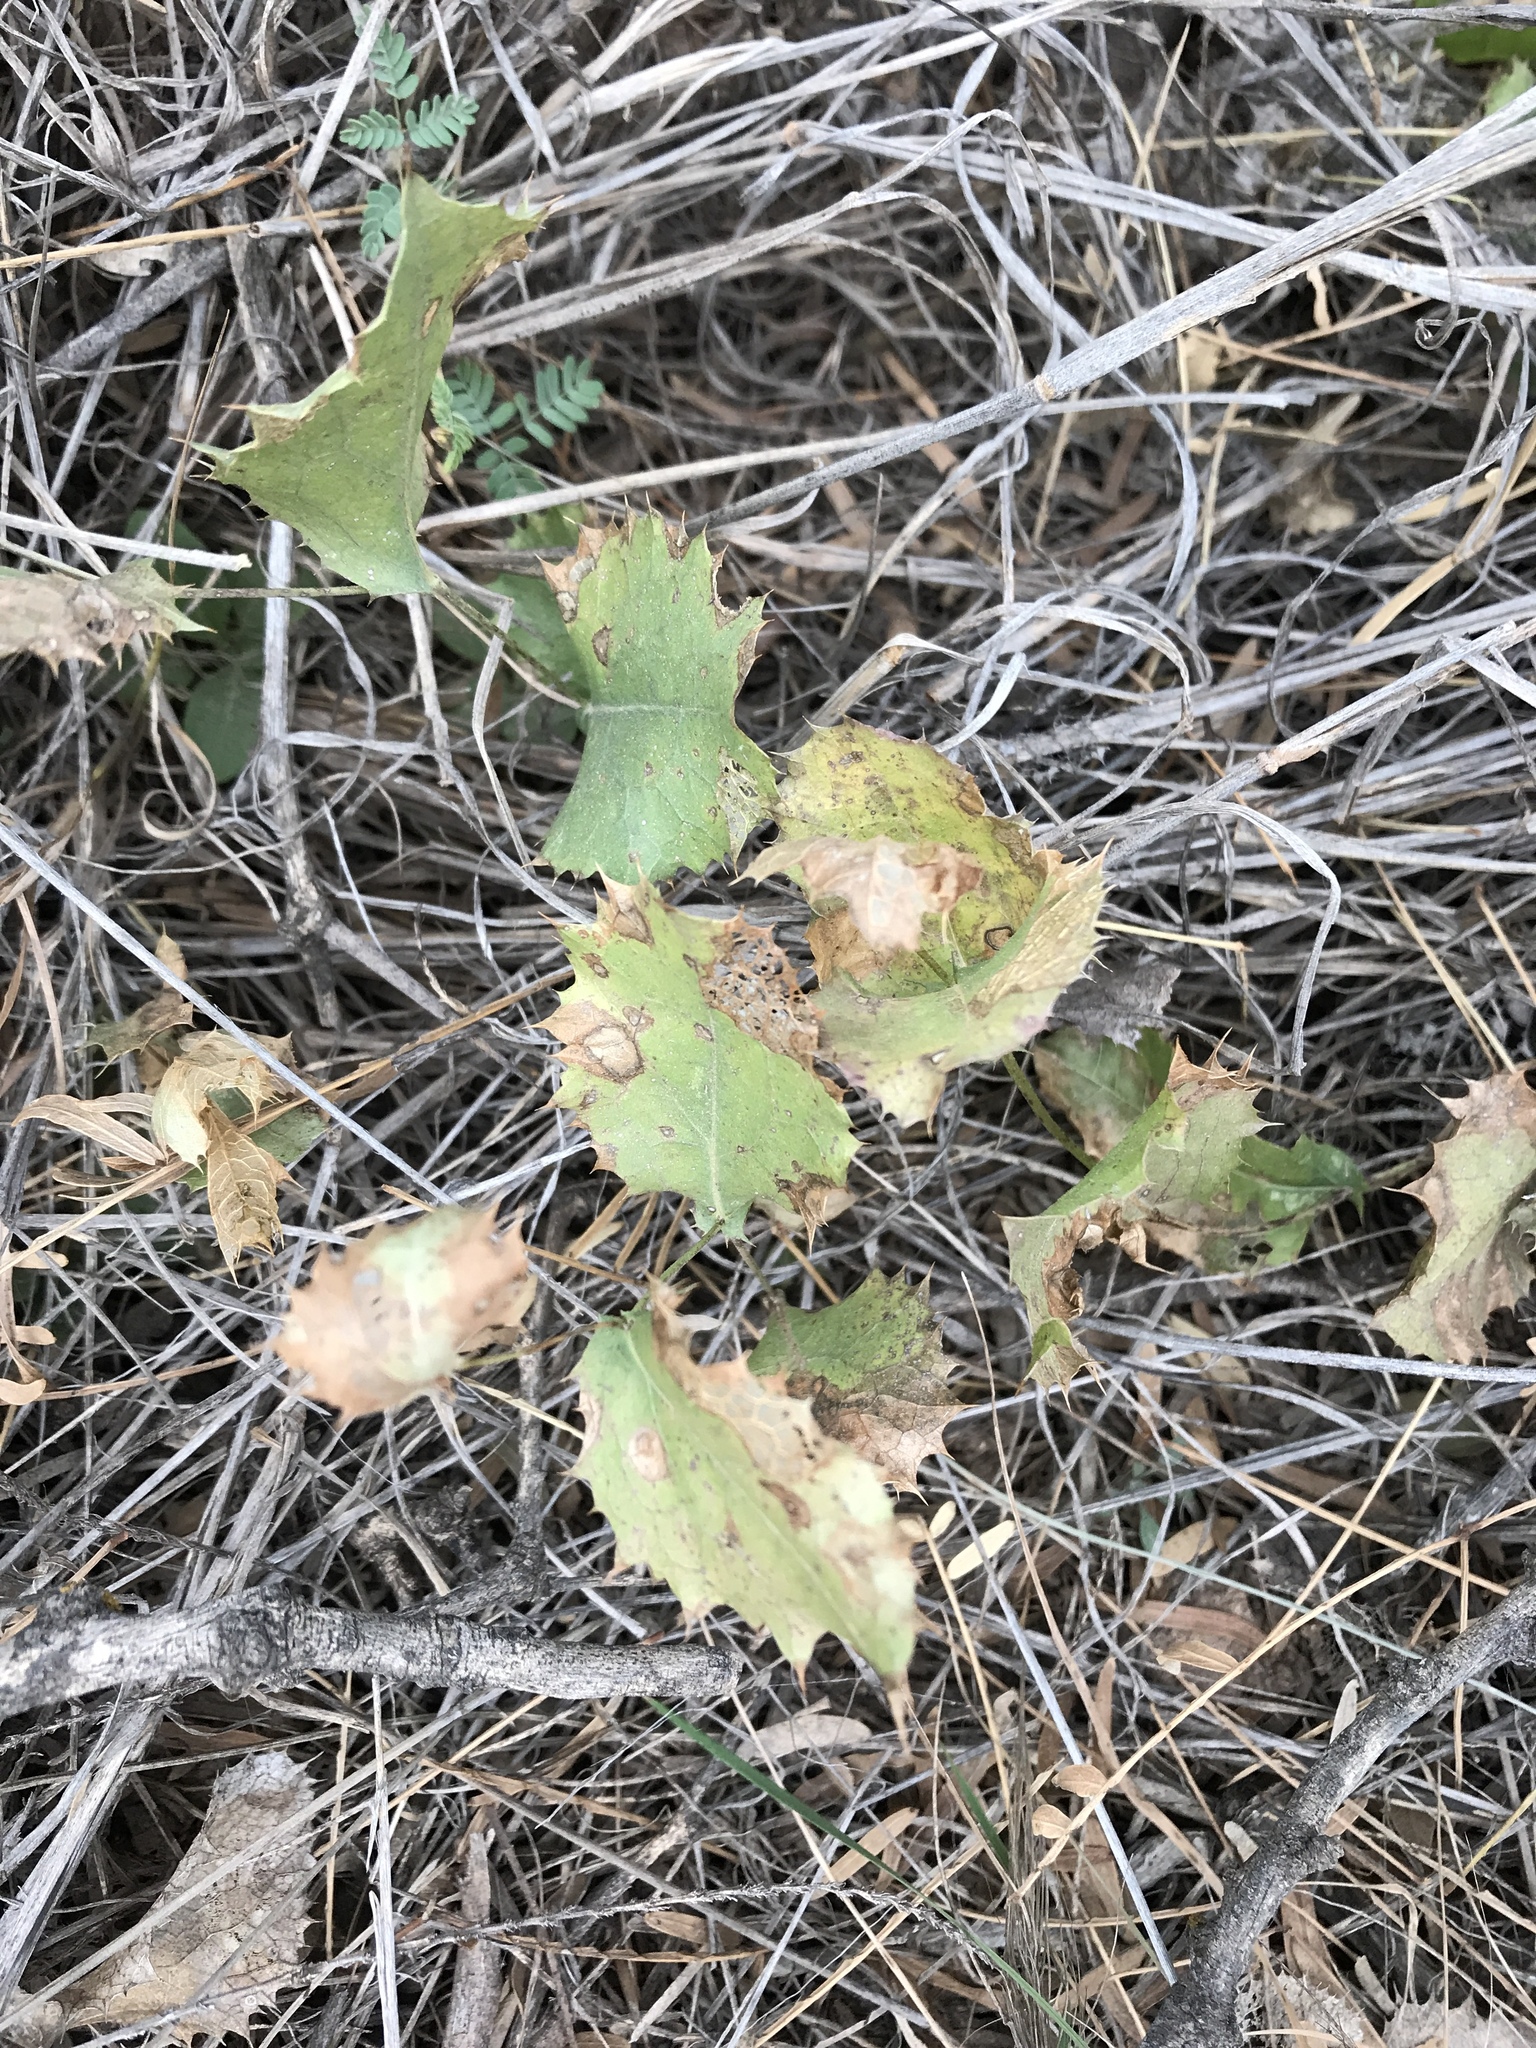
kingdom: Plantae
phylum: Tracheophyta
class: Magnoliopsida
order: Asterales
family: Asteraceae
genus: Acourtia
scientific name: Acourtia nana
